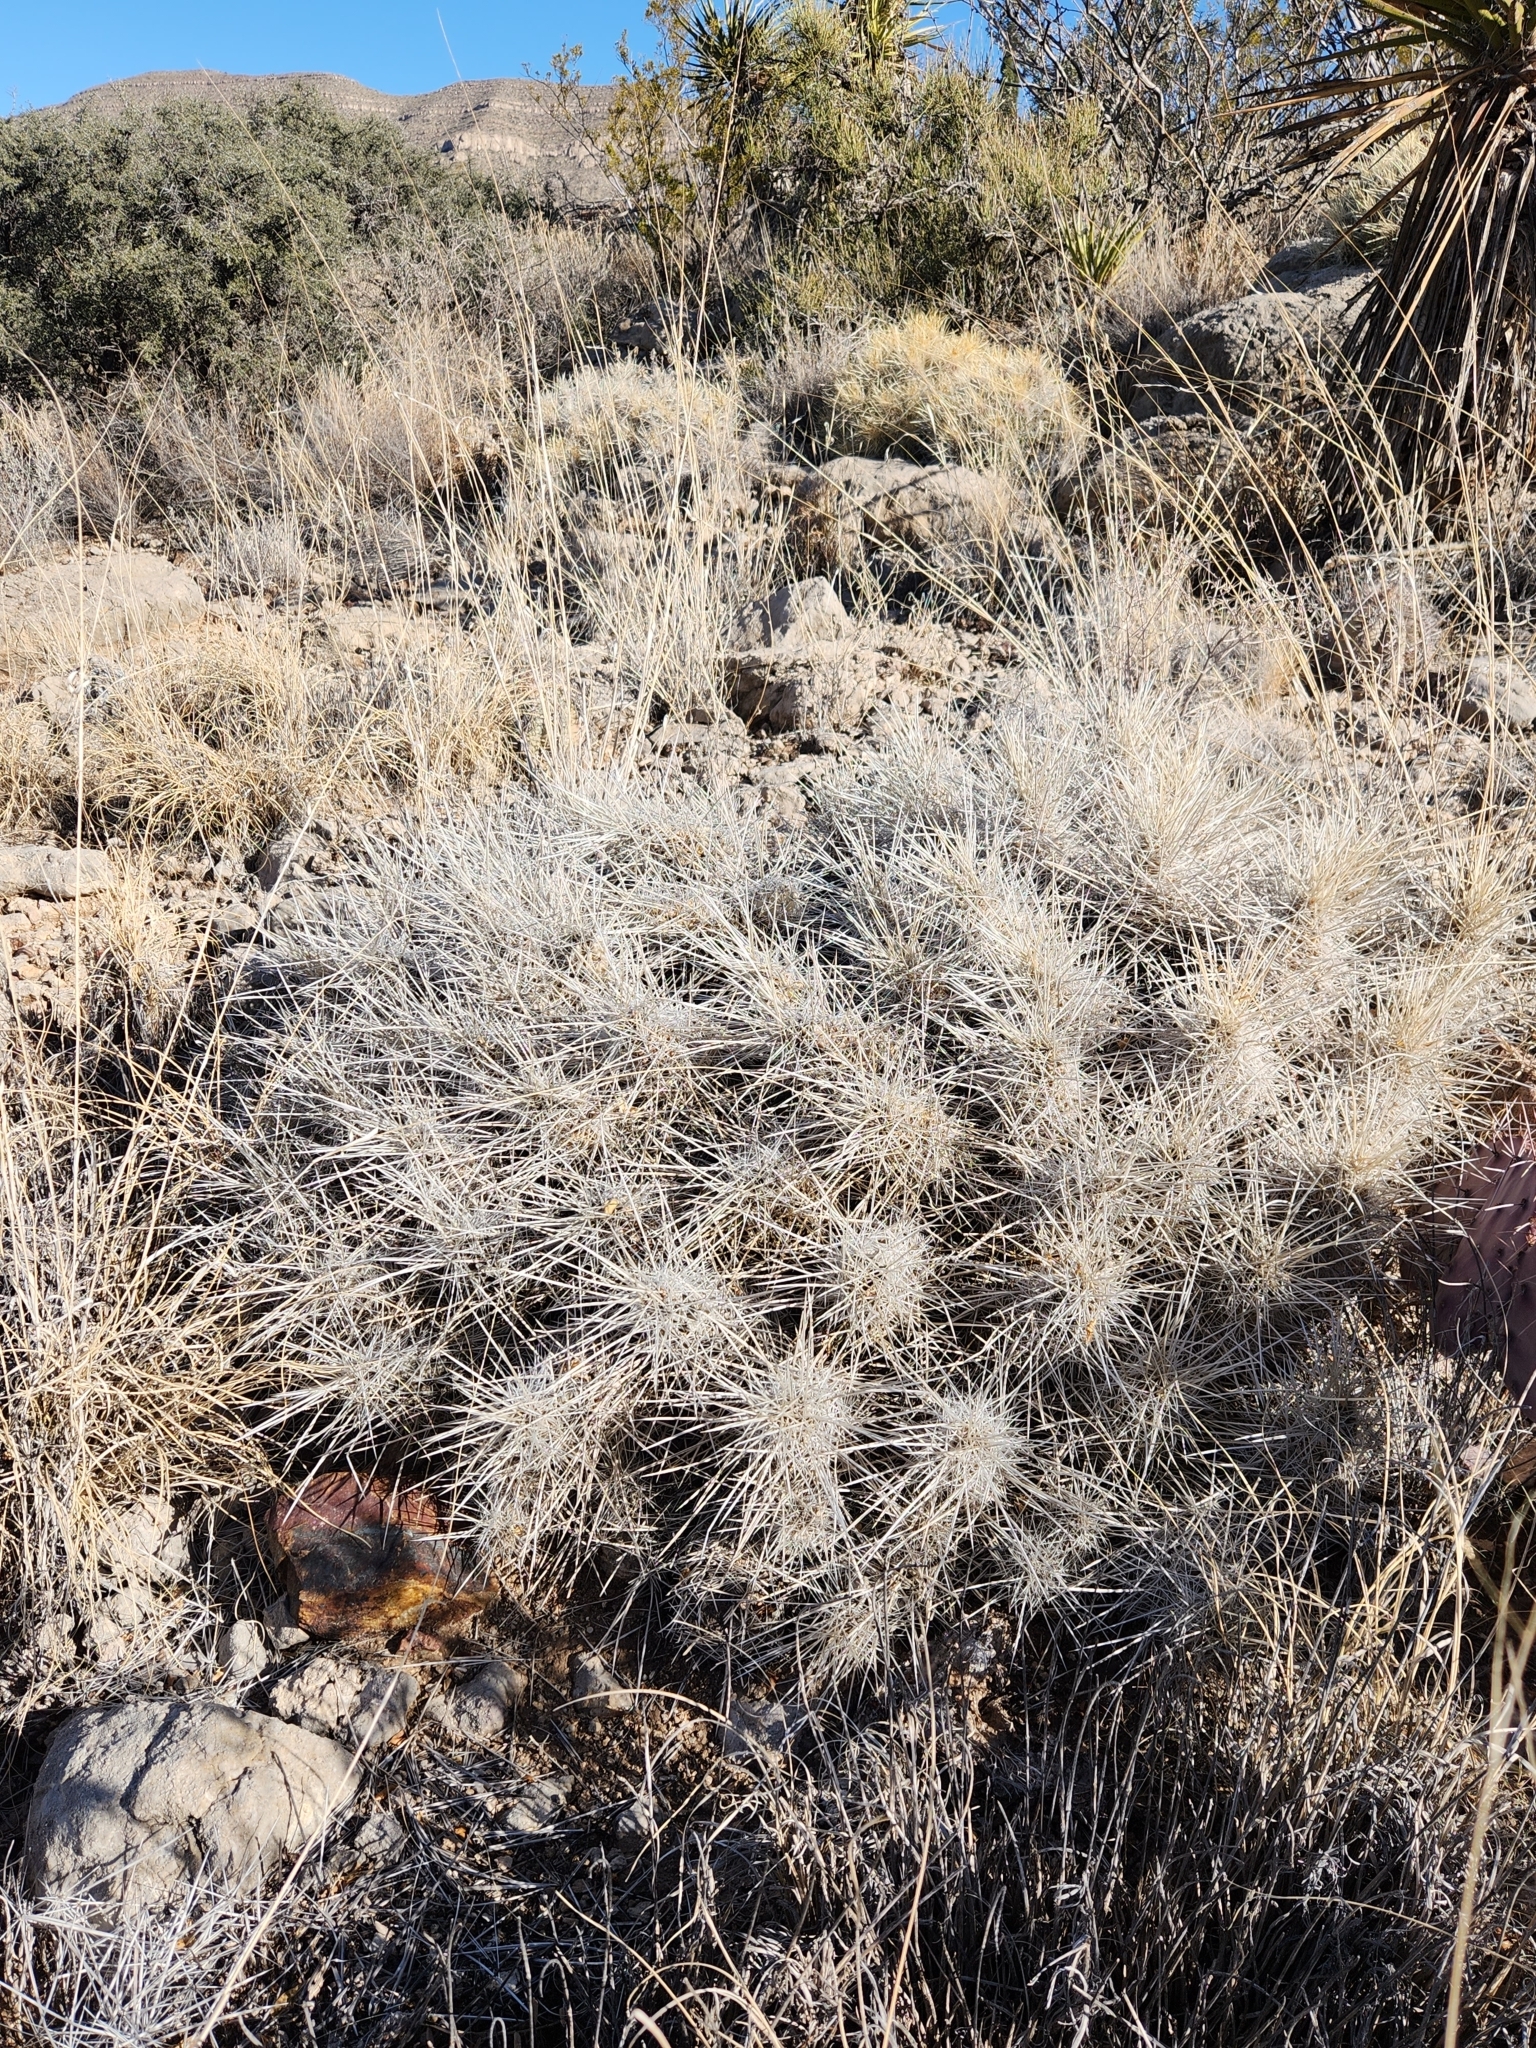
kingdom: Plantae
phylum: Tracheophyta
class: Magnoliopsida
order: Caryophyllales
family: Cactaceae
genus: Echinocereus
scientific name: Echinocereus stramineus
